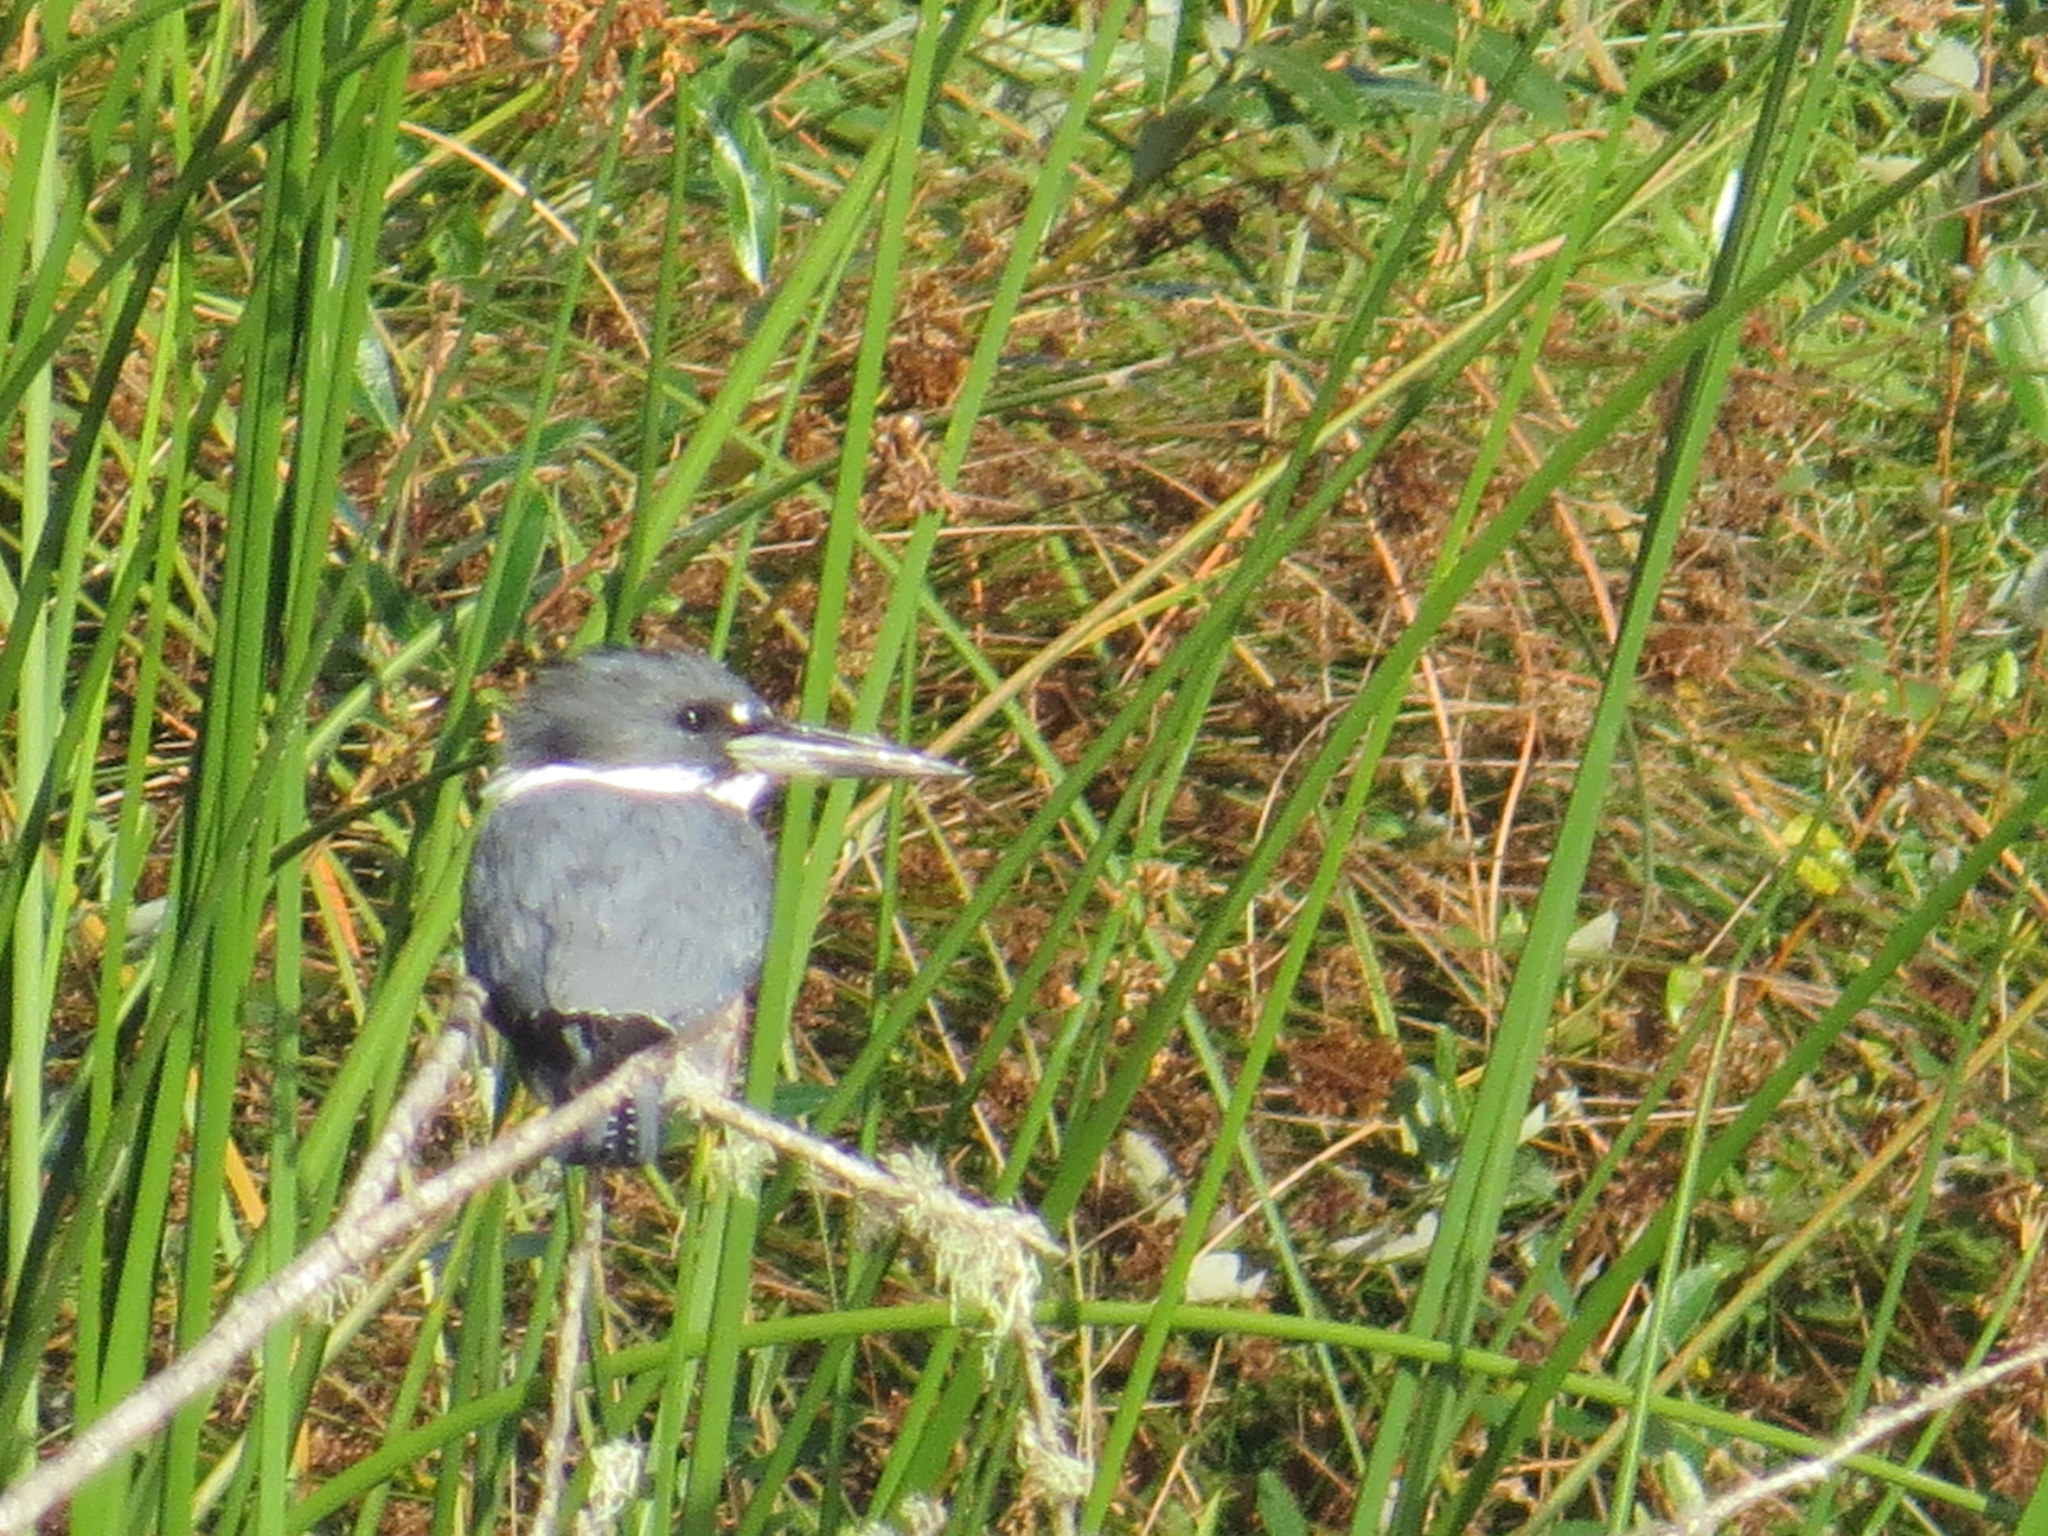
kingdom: Animalia
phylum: Chordata
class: Aves
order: Coraciiformes
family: Alcedinidae
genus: Megaceryle
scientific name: Megaceryle alcyon
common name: Belted kingfisher
